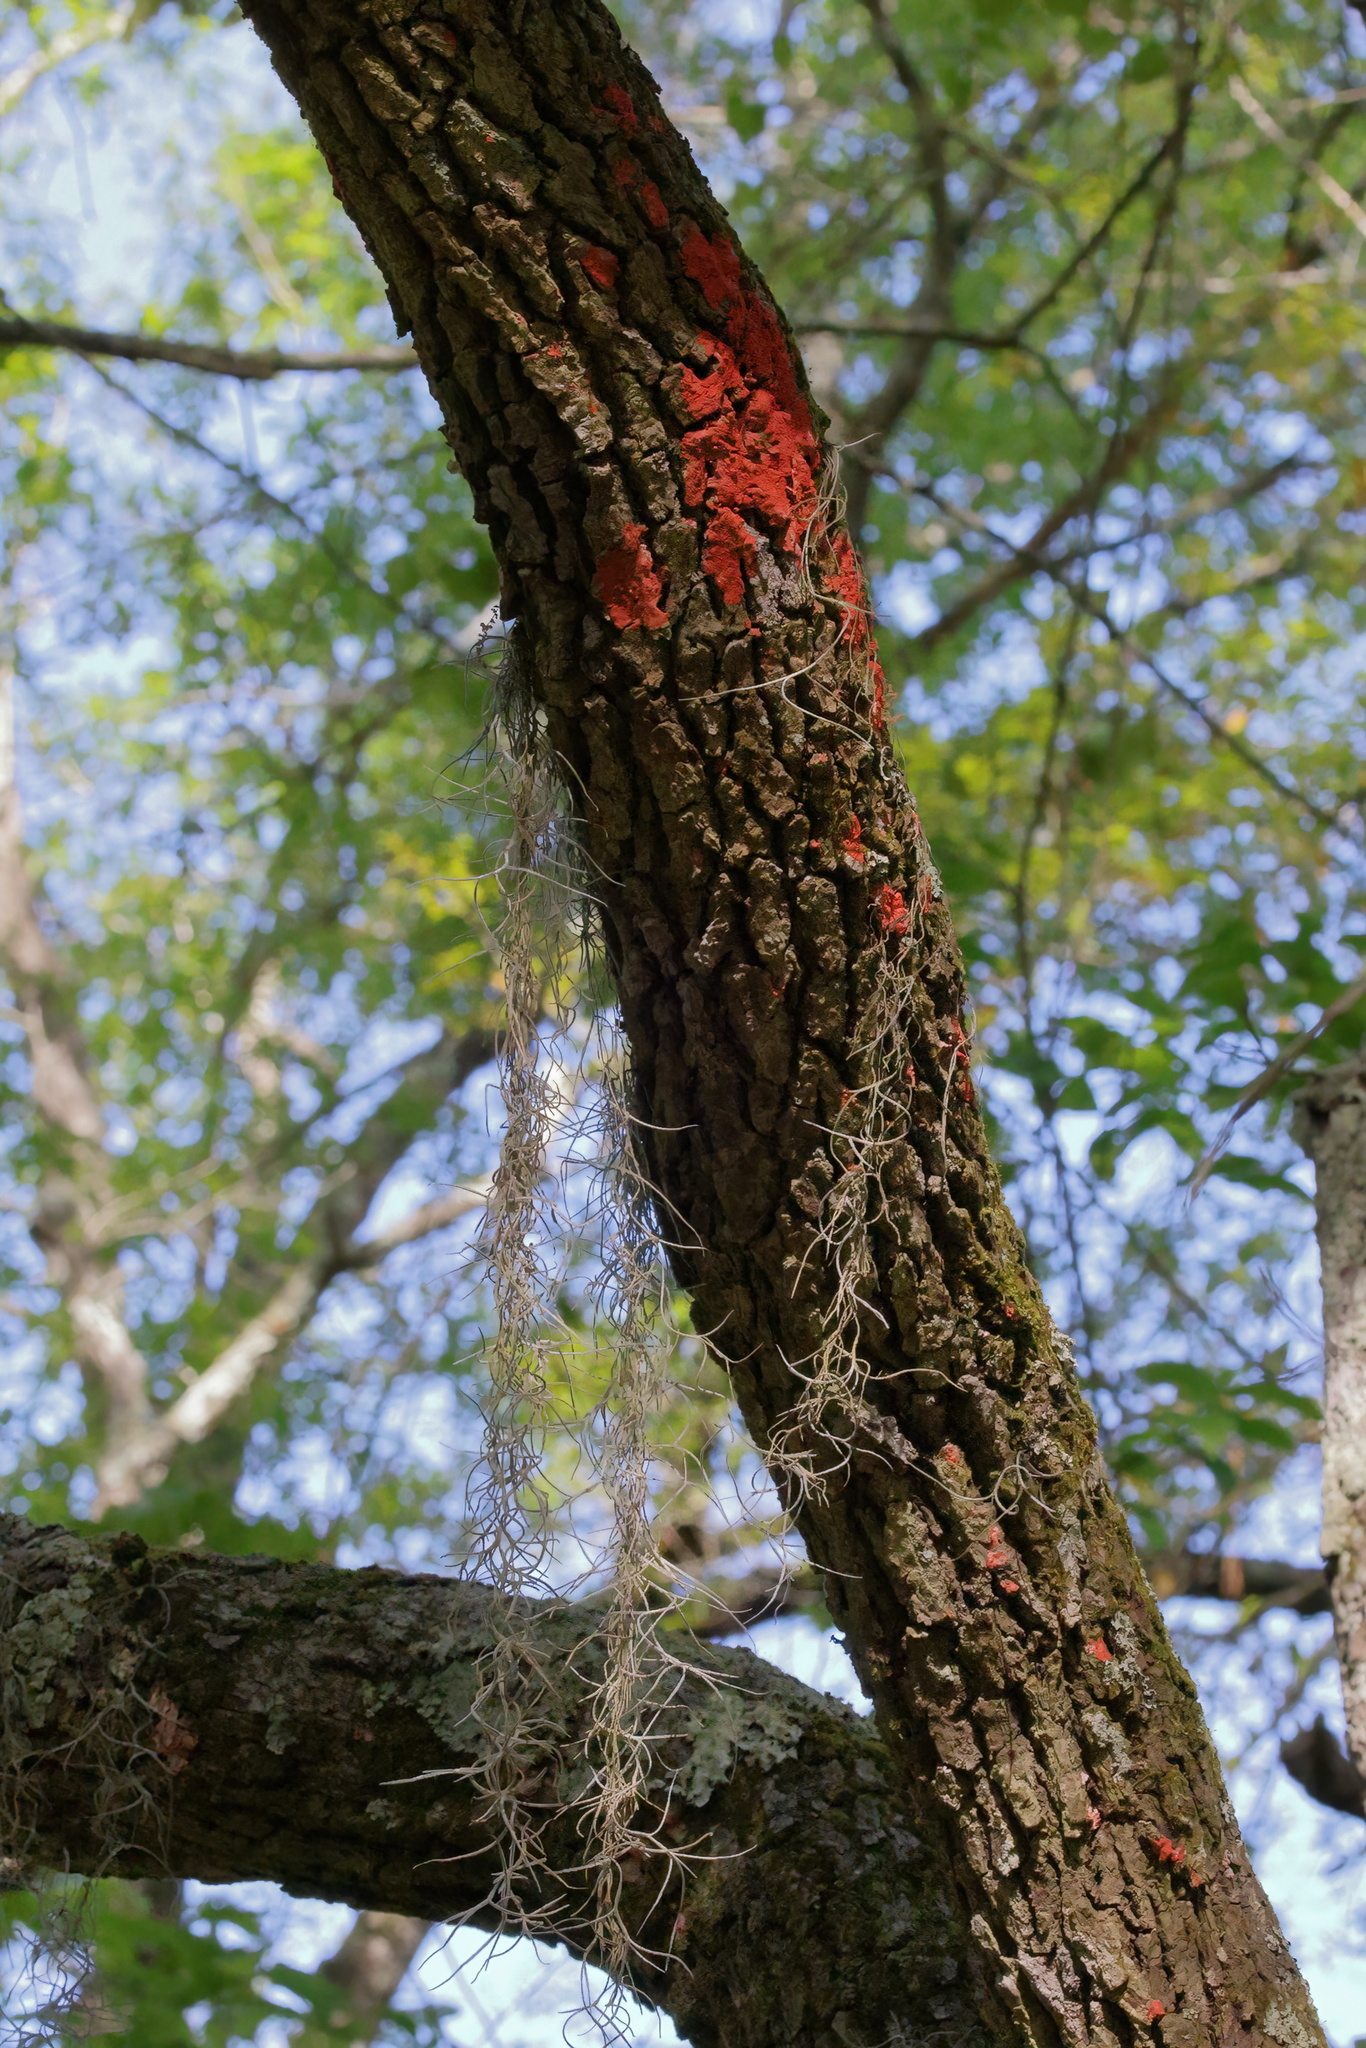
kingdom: Plantae
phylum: Tracheophyta
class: Liliopsida
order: Poales
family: Bromeliaceae
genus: Tillandsia
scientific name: Tillandsia usneoides
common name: Spanish moss
